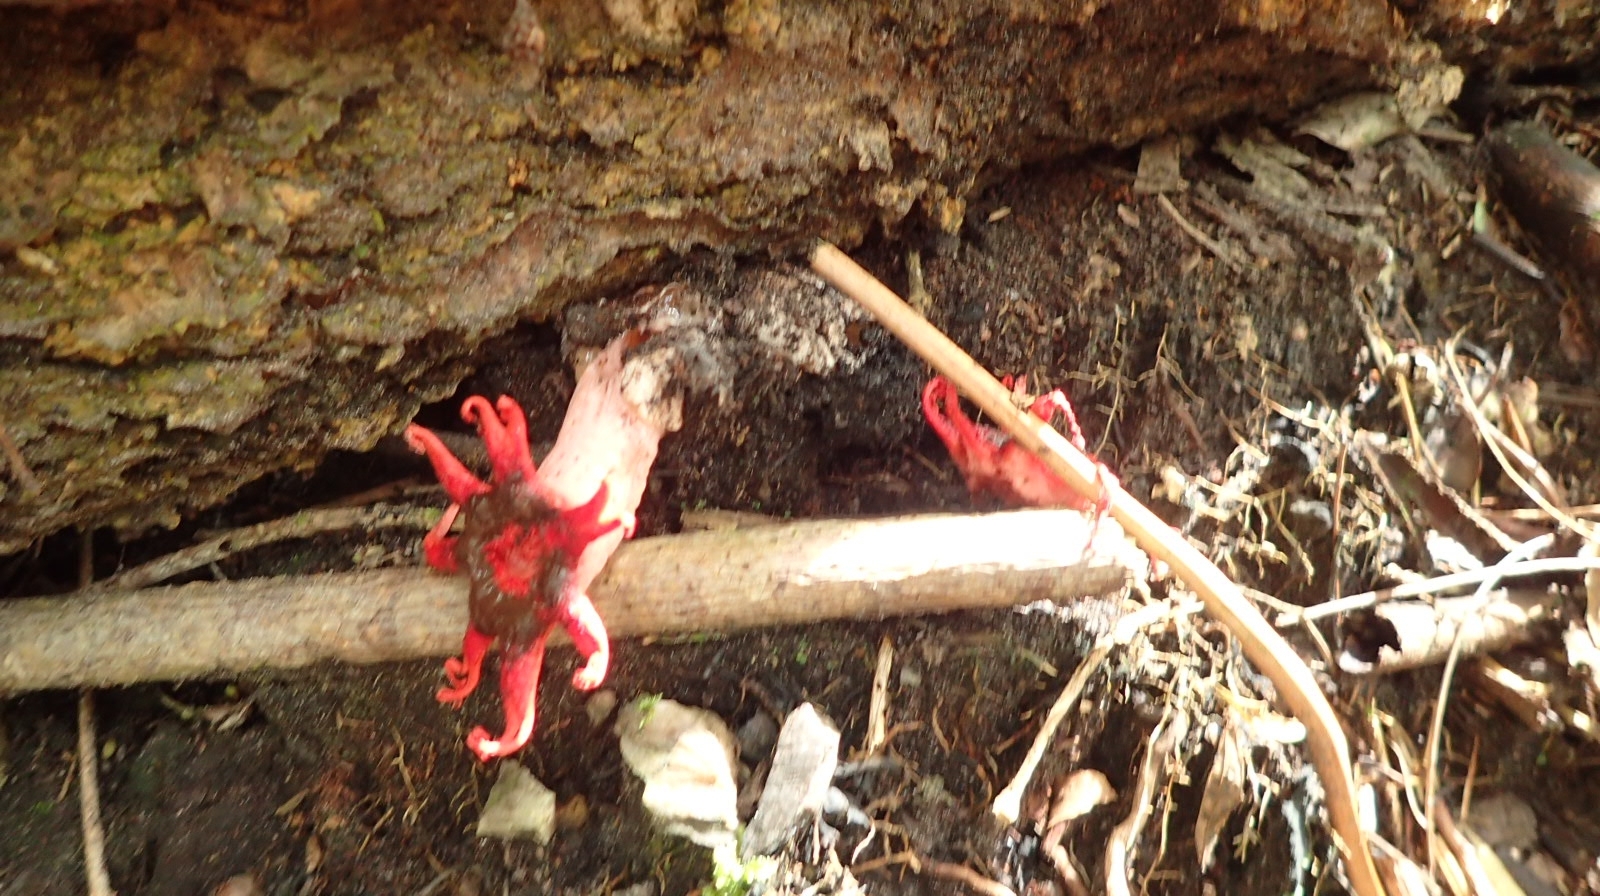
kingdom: Fungi
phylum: Basidiomycota
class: Agaricomycetes
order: Phallales
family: Phallaceae
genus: Aseroe
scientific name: Aseroe rubra
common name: Starfish fungus
